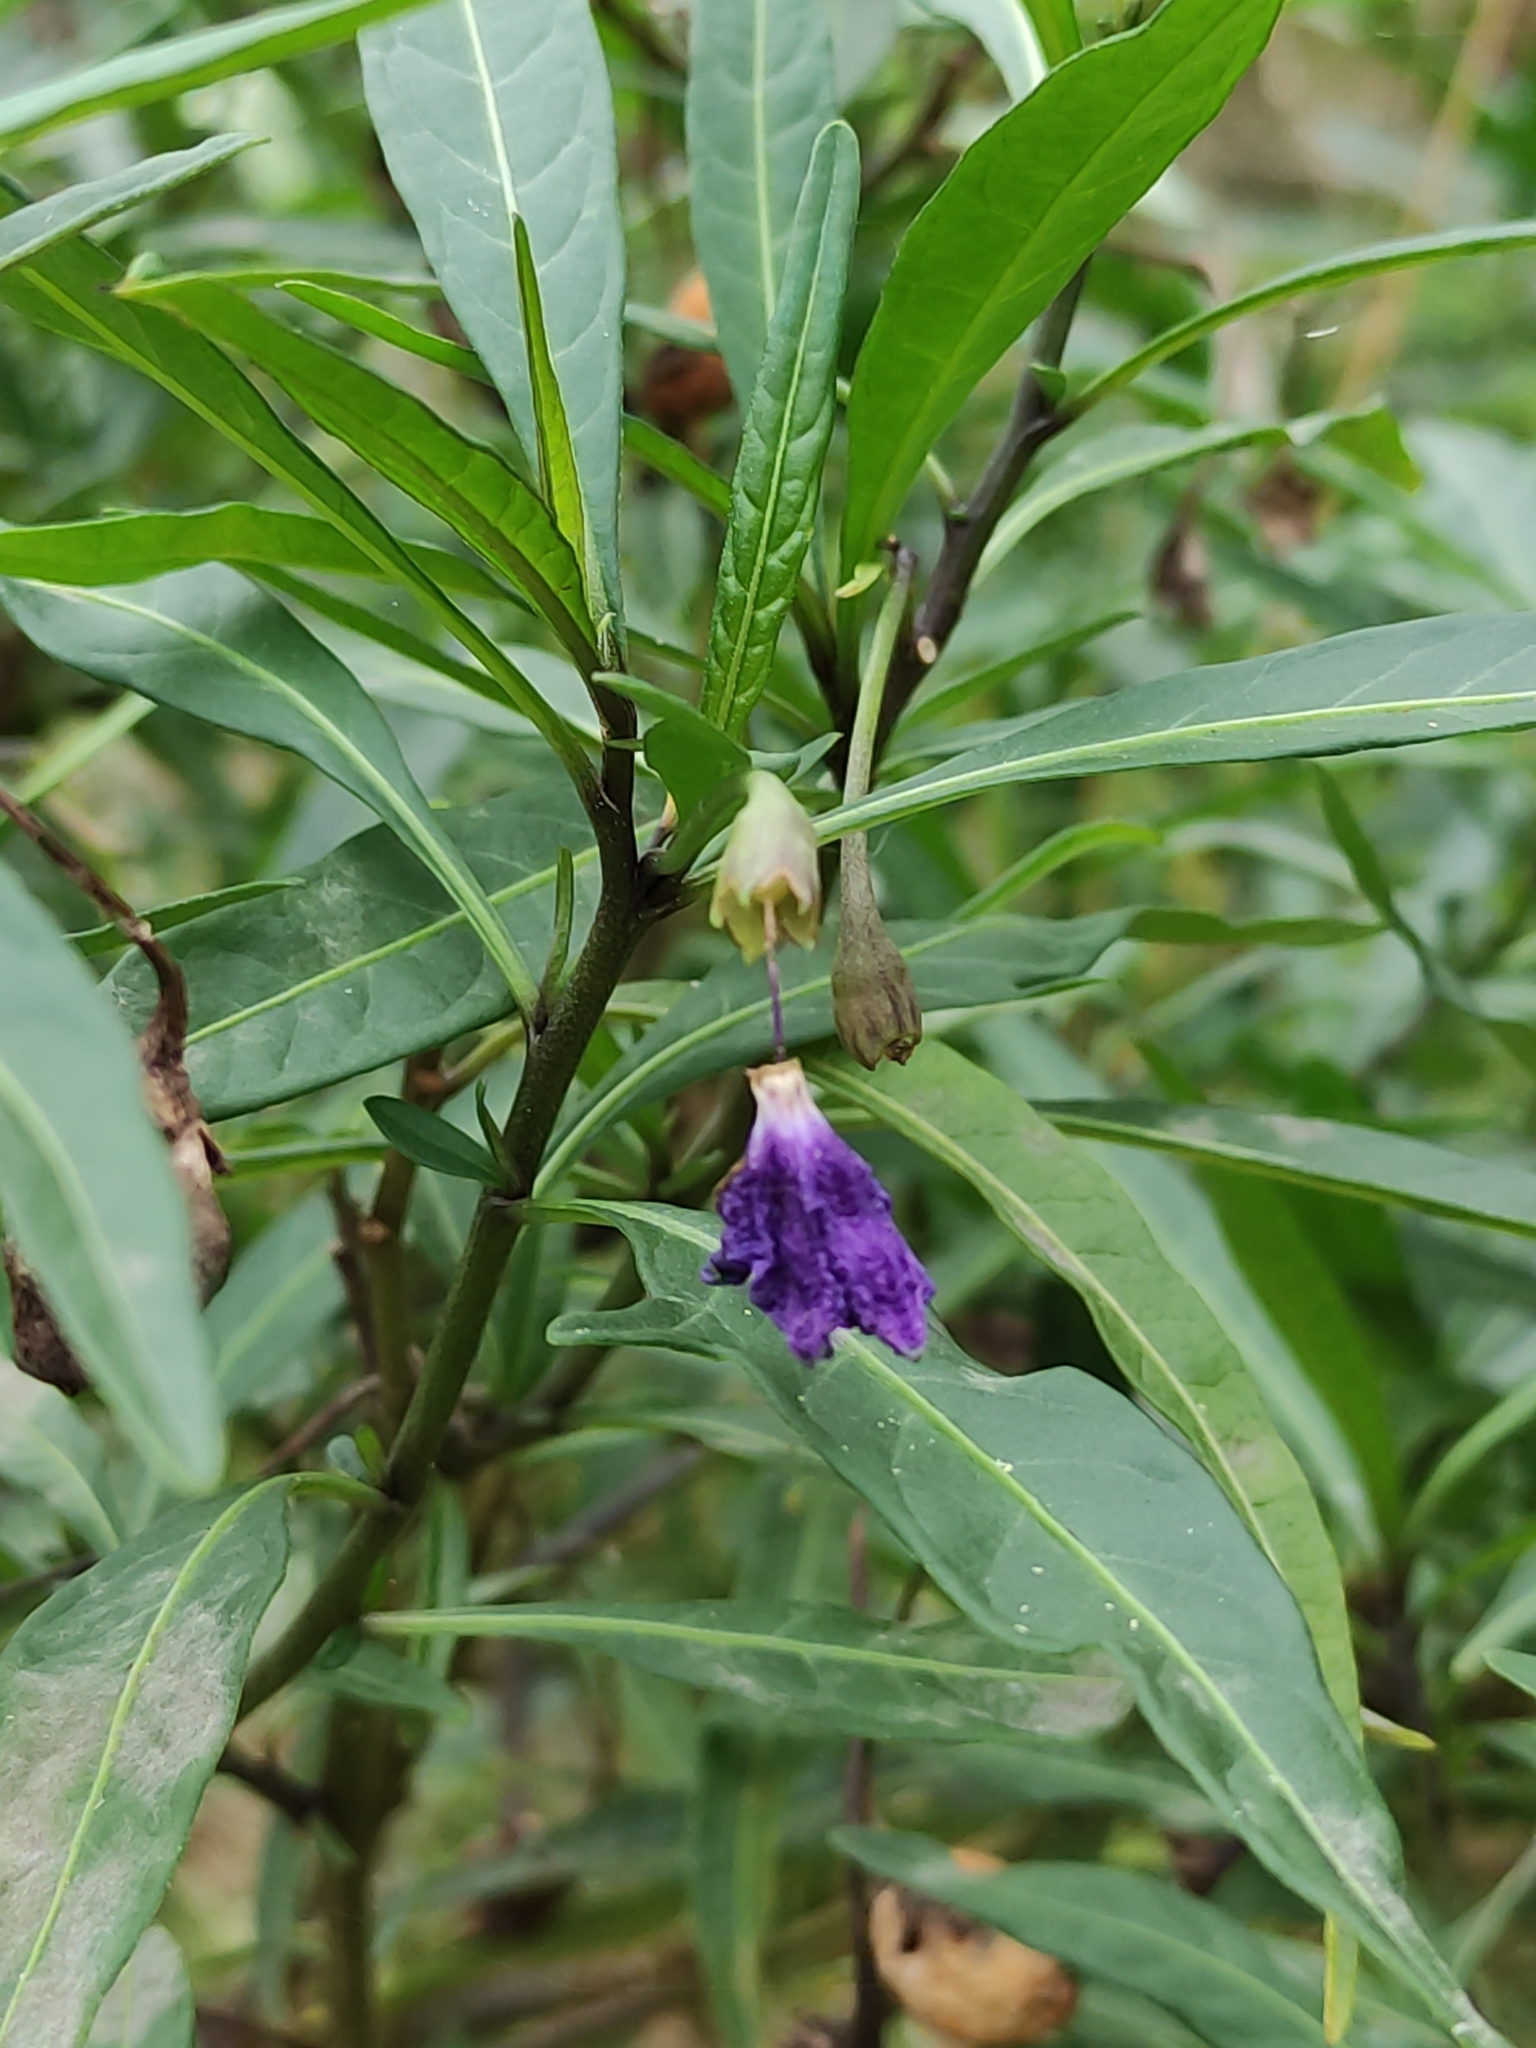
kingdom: Plantae
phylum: Tracheophyta
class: Magnoliopsida
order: Solanales
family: Solanaceae
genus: Solanum
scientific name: Solanum laciniatum
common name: Kangaroo-apple
